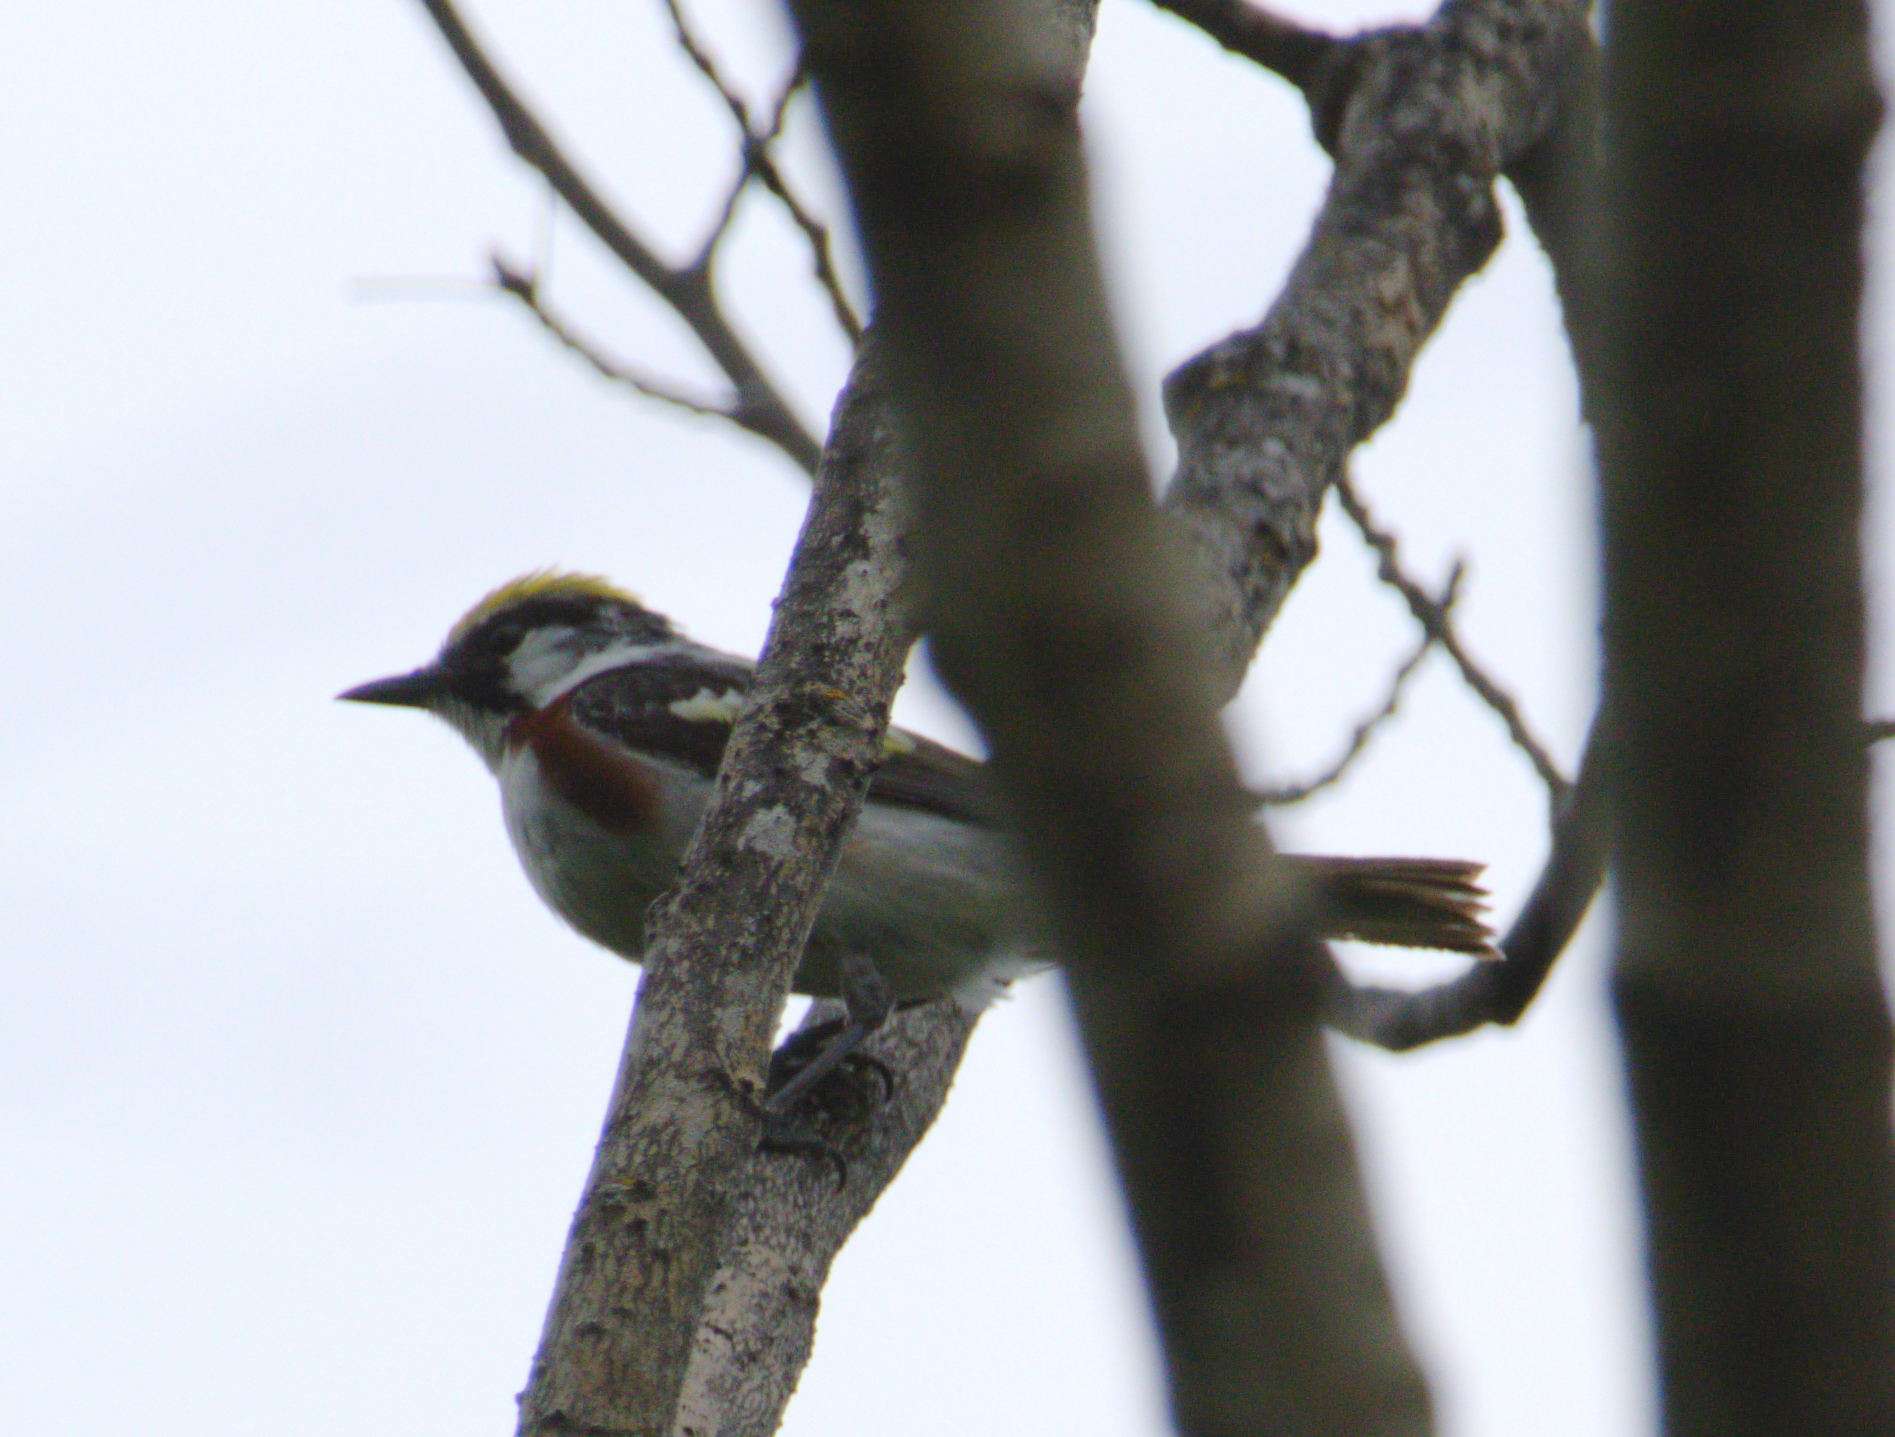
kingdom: Animalia
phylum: Chordata
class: Aves
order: Passeriformes
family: Parulidae
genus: Setophaga
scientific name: Setophaga pensylvanica
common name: Chestnut-sided warbler
